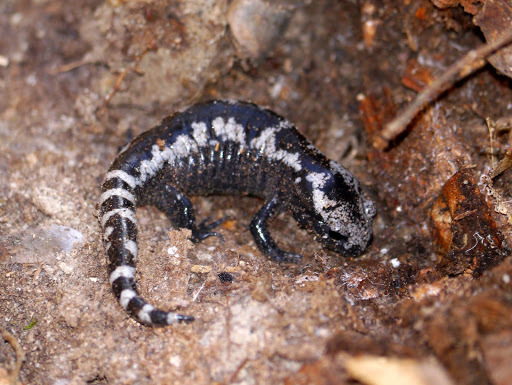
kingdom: Animalia
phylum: Chordata
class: Amphibia
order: Caudata
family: Ambystomatidae
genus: Ambystoma
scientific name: Ambystoma opacum
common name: Marbled salamander
